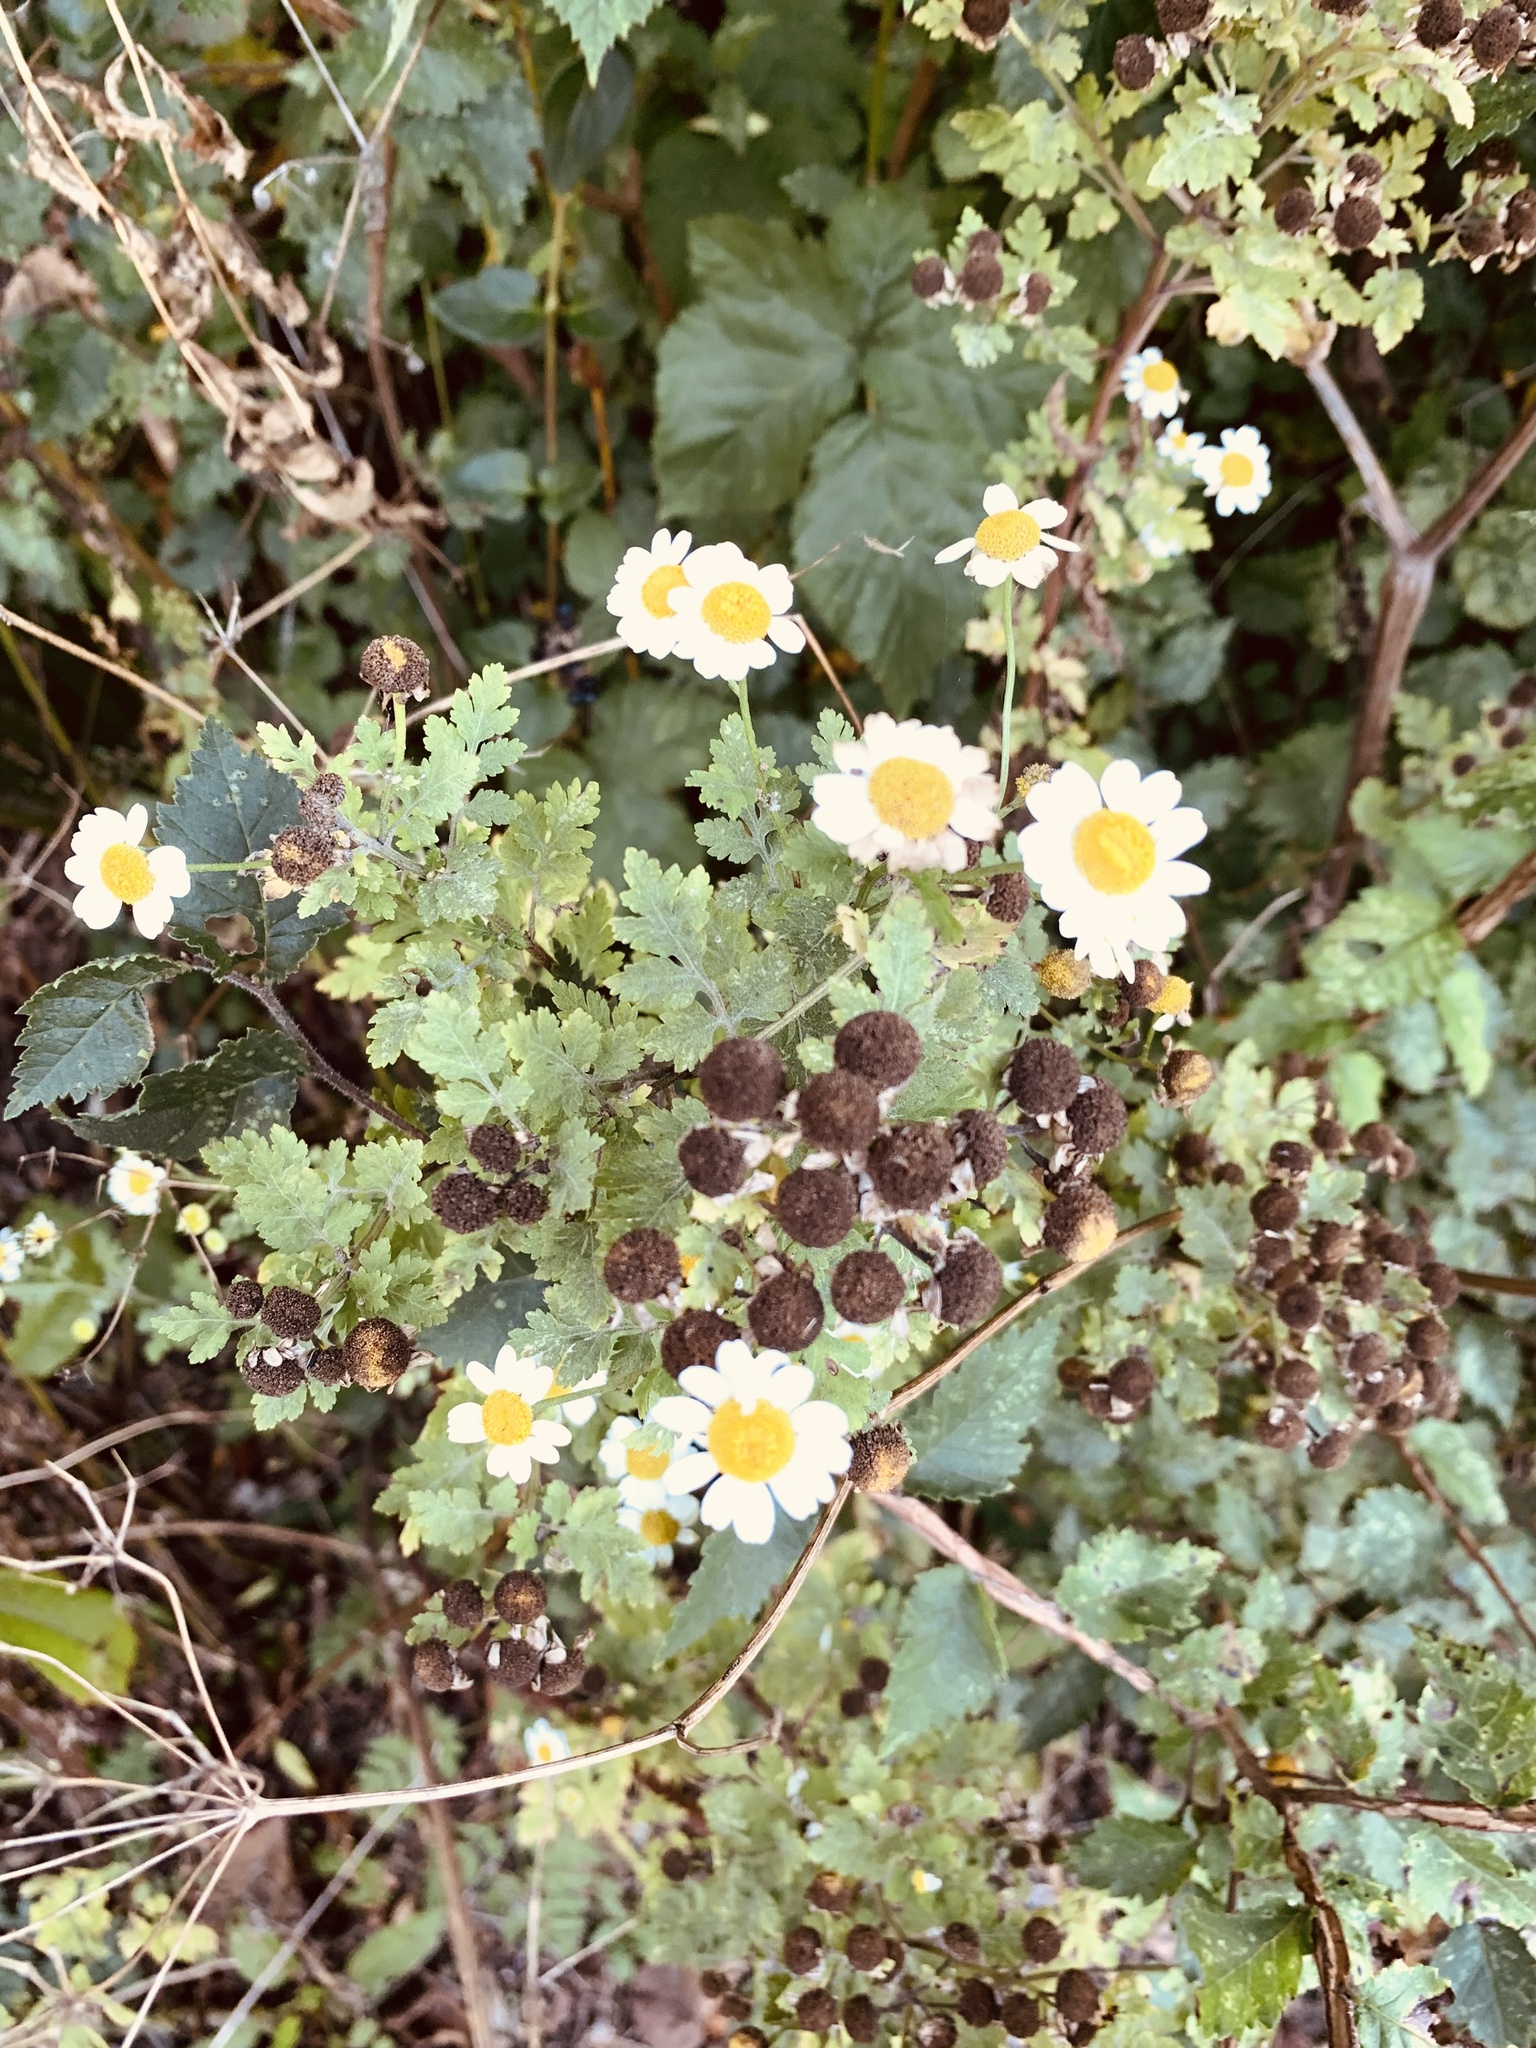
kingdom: Plantae
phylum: Tracheophyta
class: Magnoliopsida
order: Asterales
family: Asteraceae
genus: Tanacetum
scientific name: Tanacetum parthenium
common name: Feverfew
